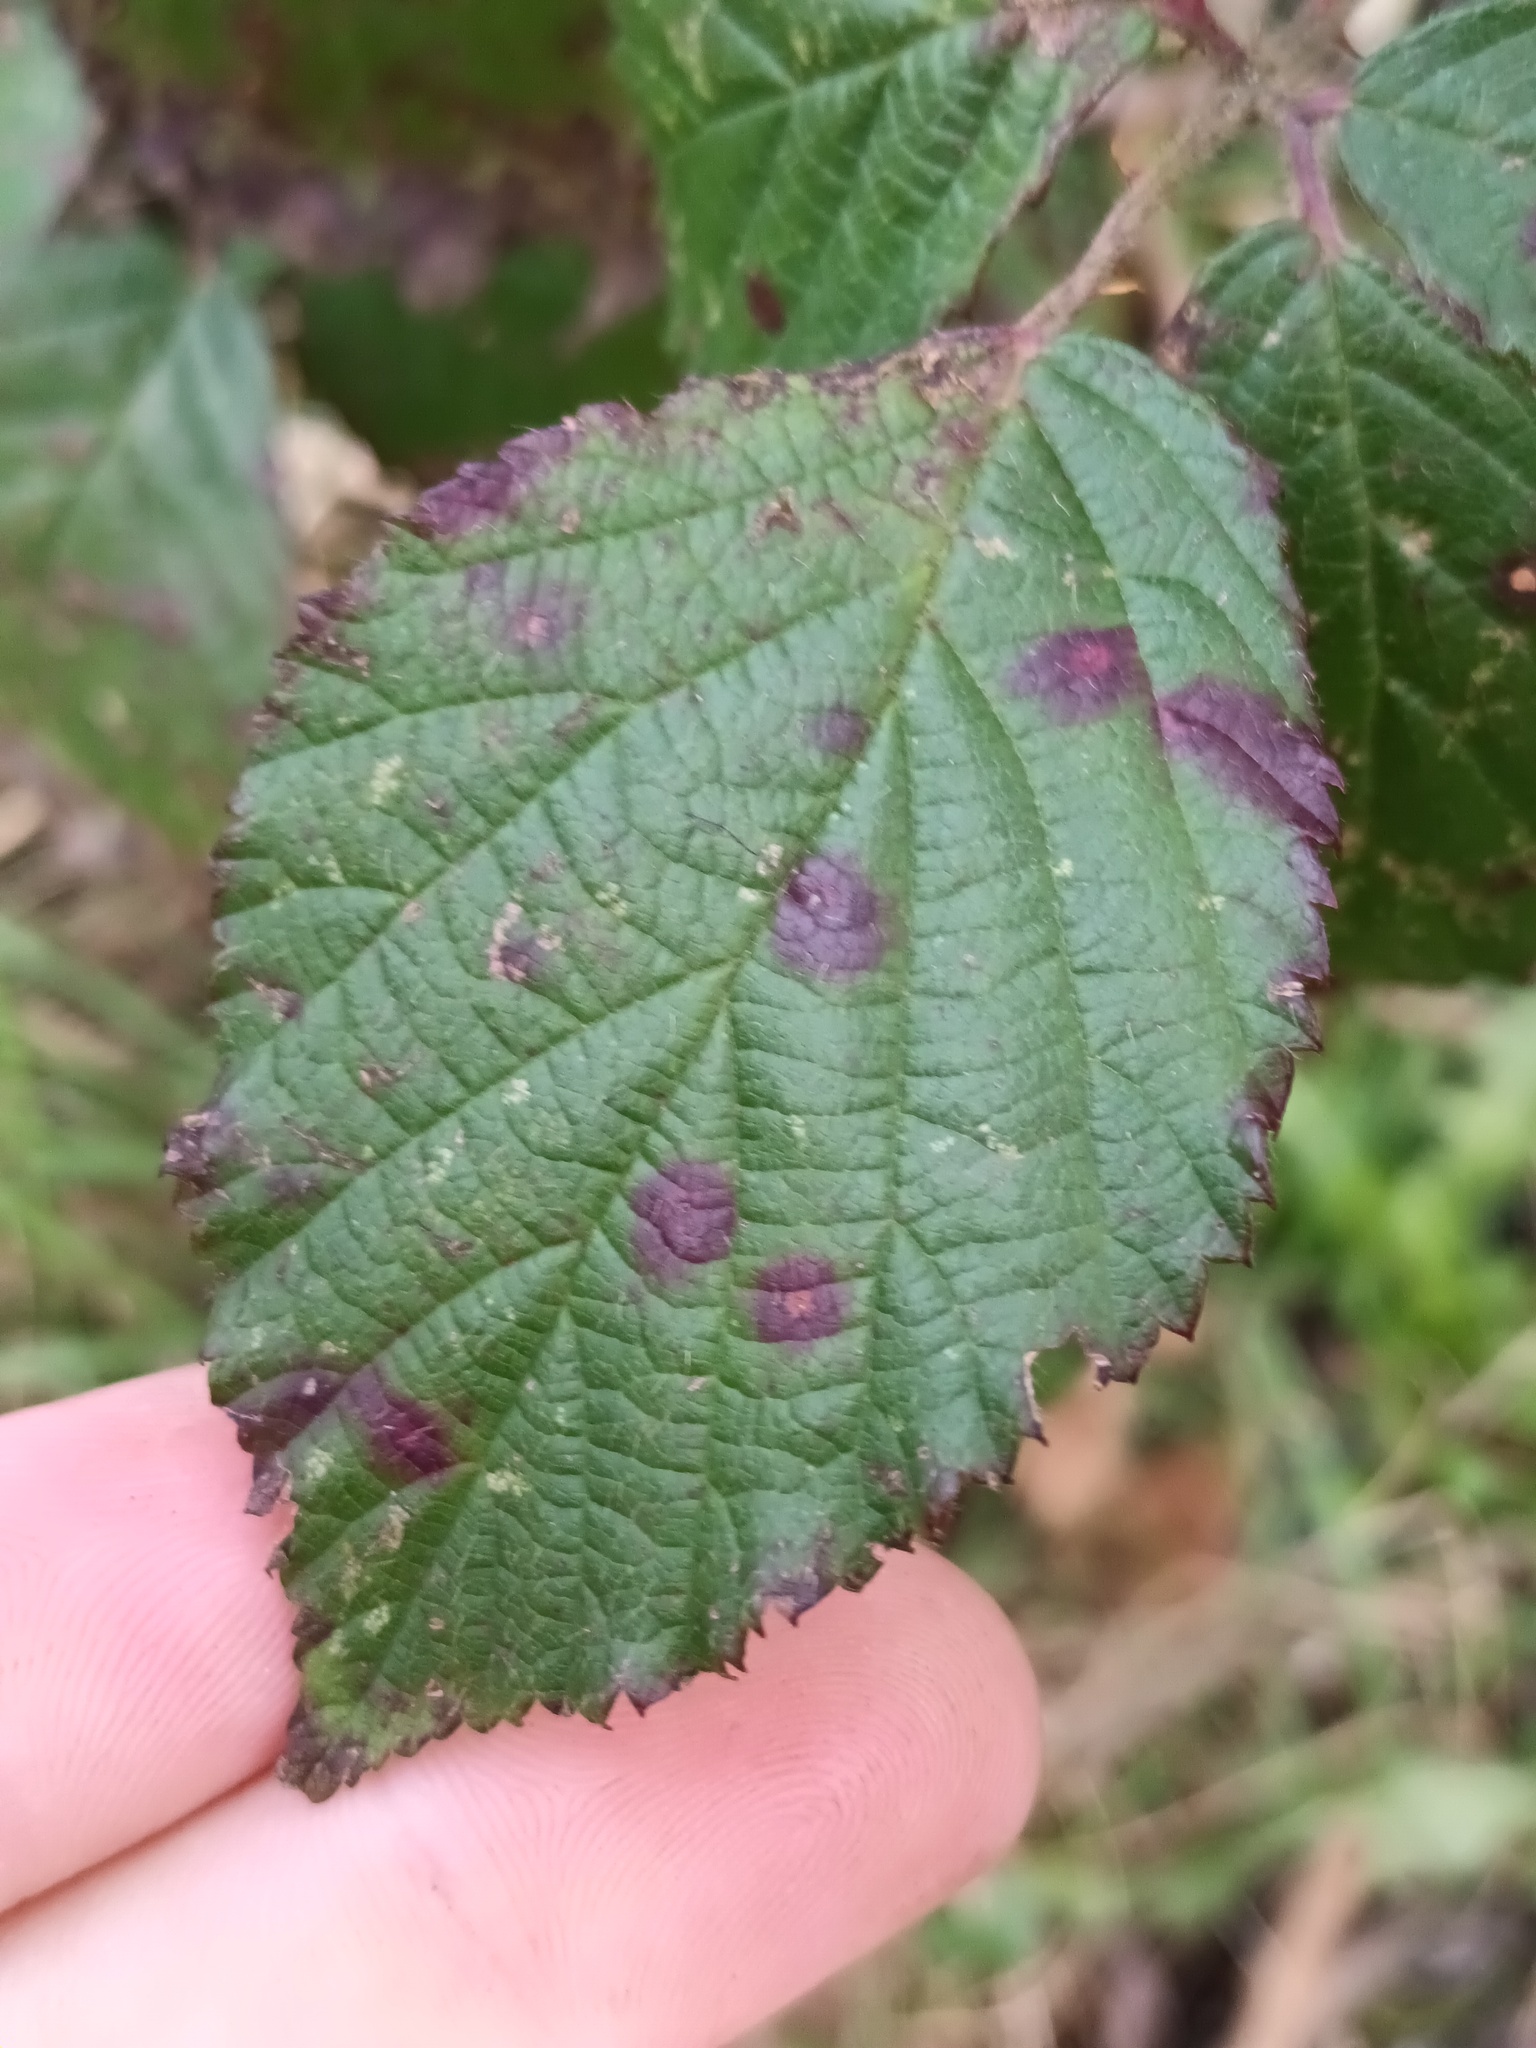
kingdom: Fungi
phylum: Basidiomycota
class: Pucciniomycetes
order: Pucciniales
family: Phragmidiaceae
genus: Phragmidium
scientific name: Phragmidium violaceum
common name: Violet bramble rust
